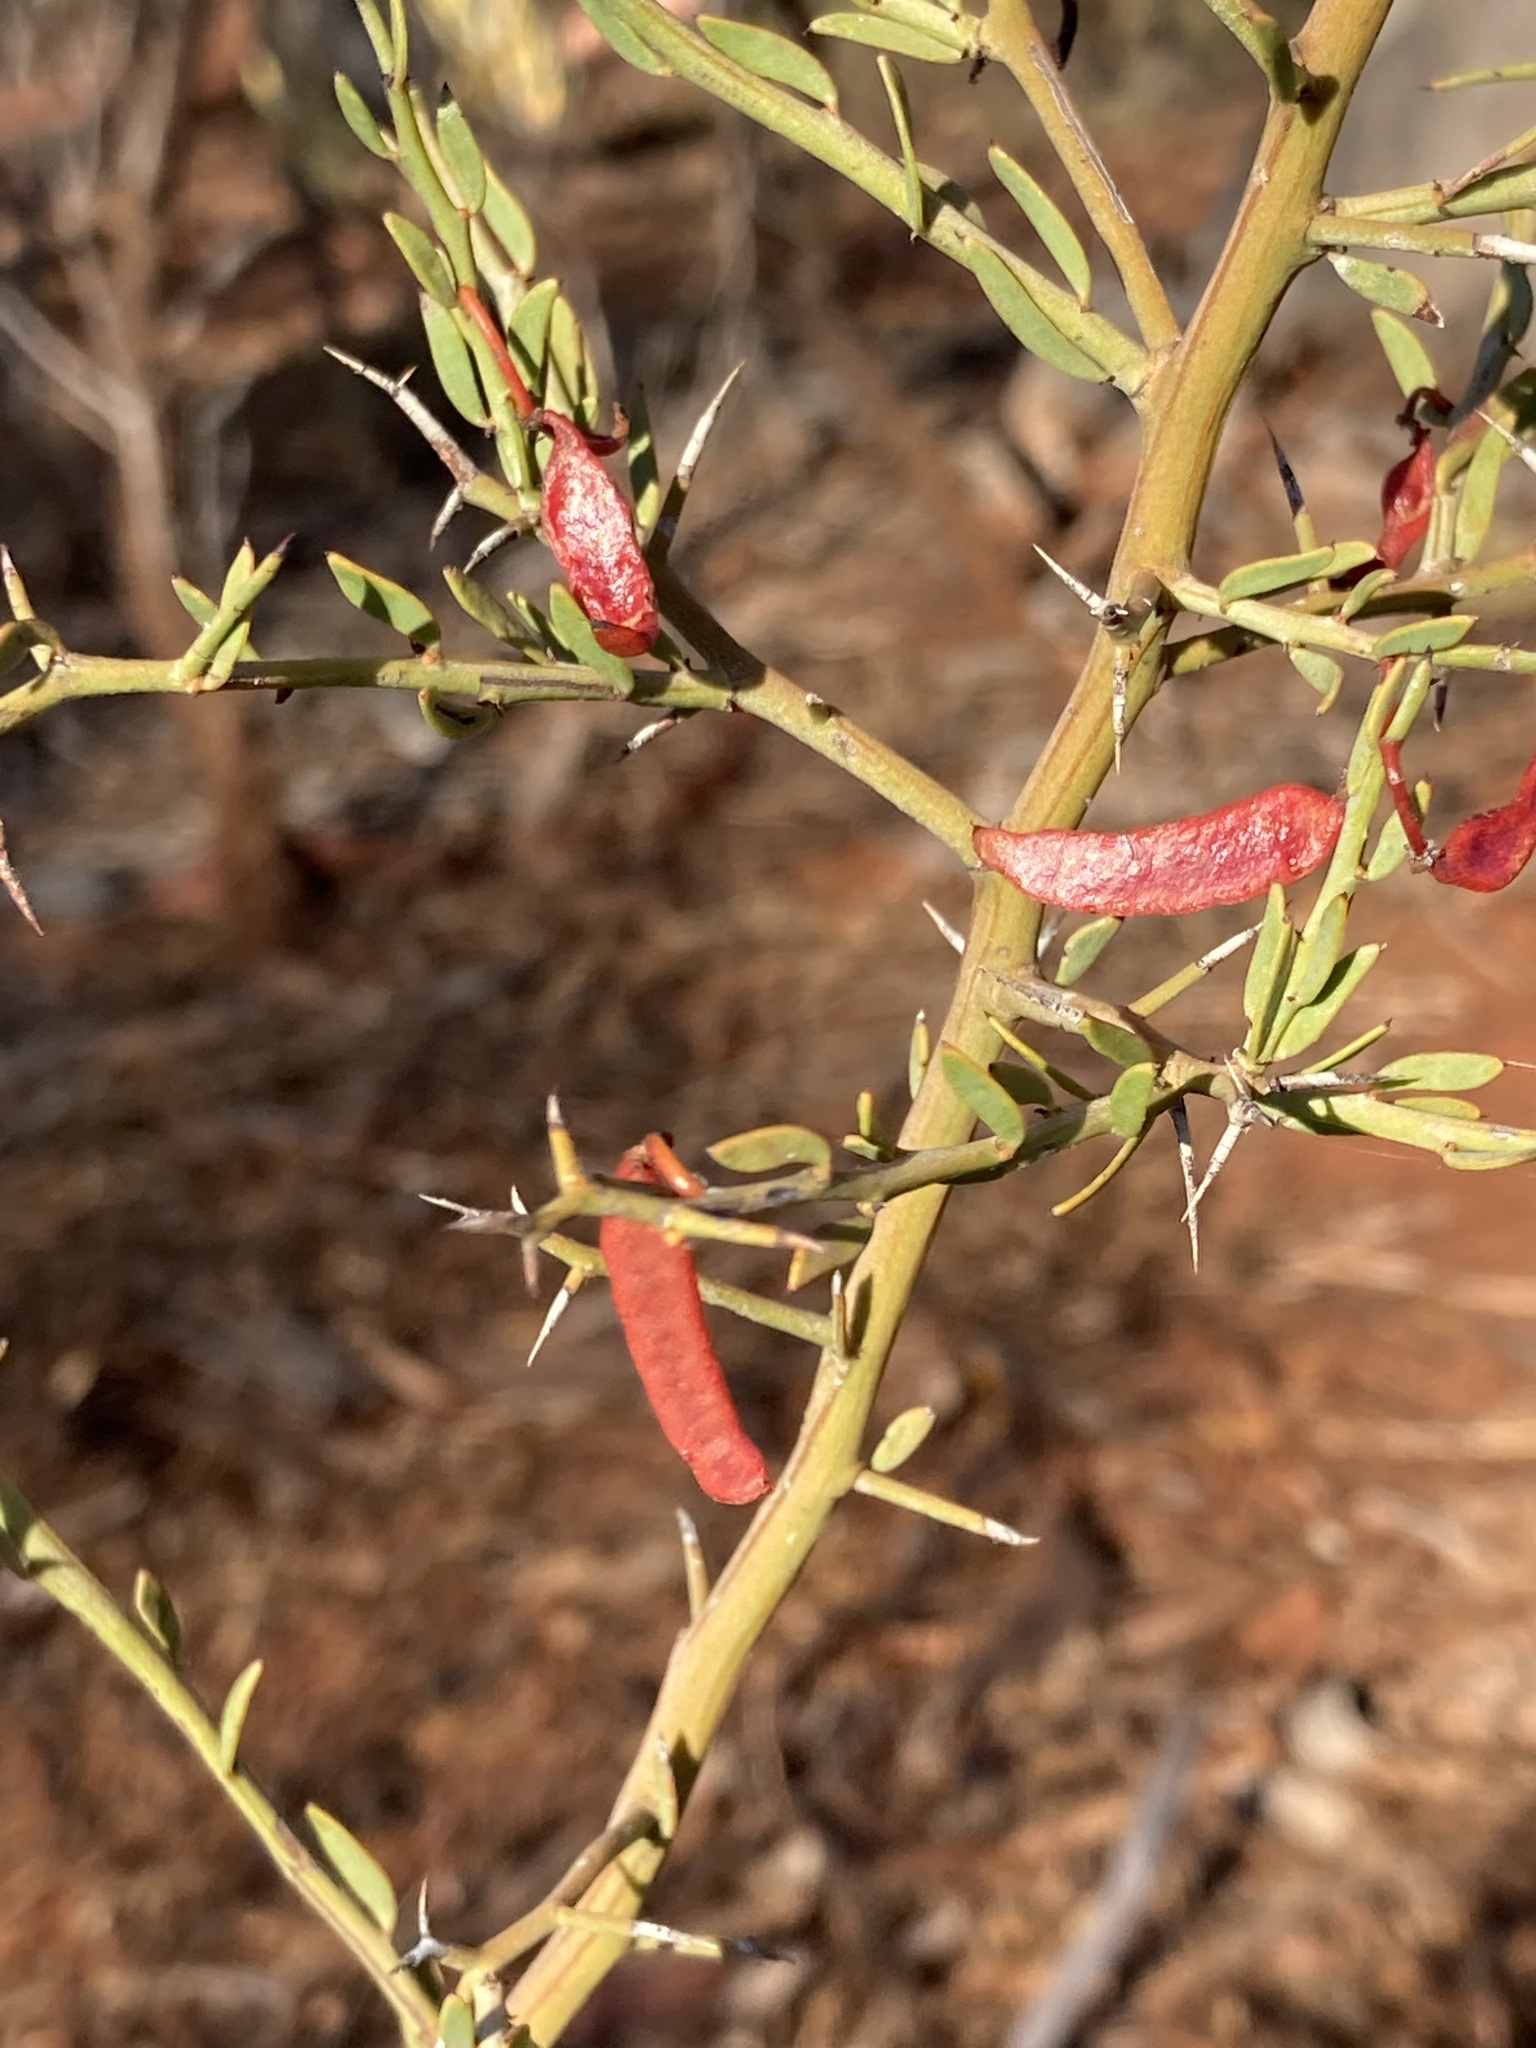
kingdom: Plantae
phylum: Tracheophyta
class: Magnoliopsida
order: Fabales
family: Fabaceae
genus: Acacia
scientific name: Acacia erinacea
